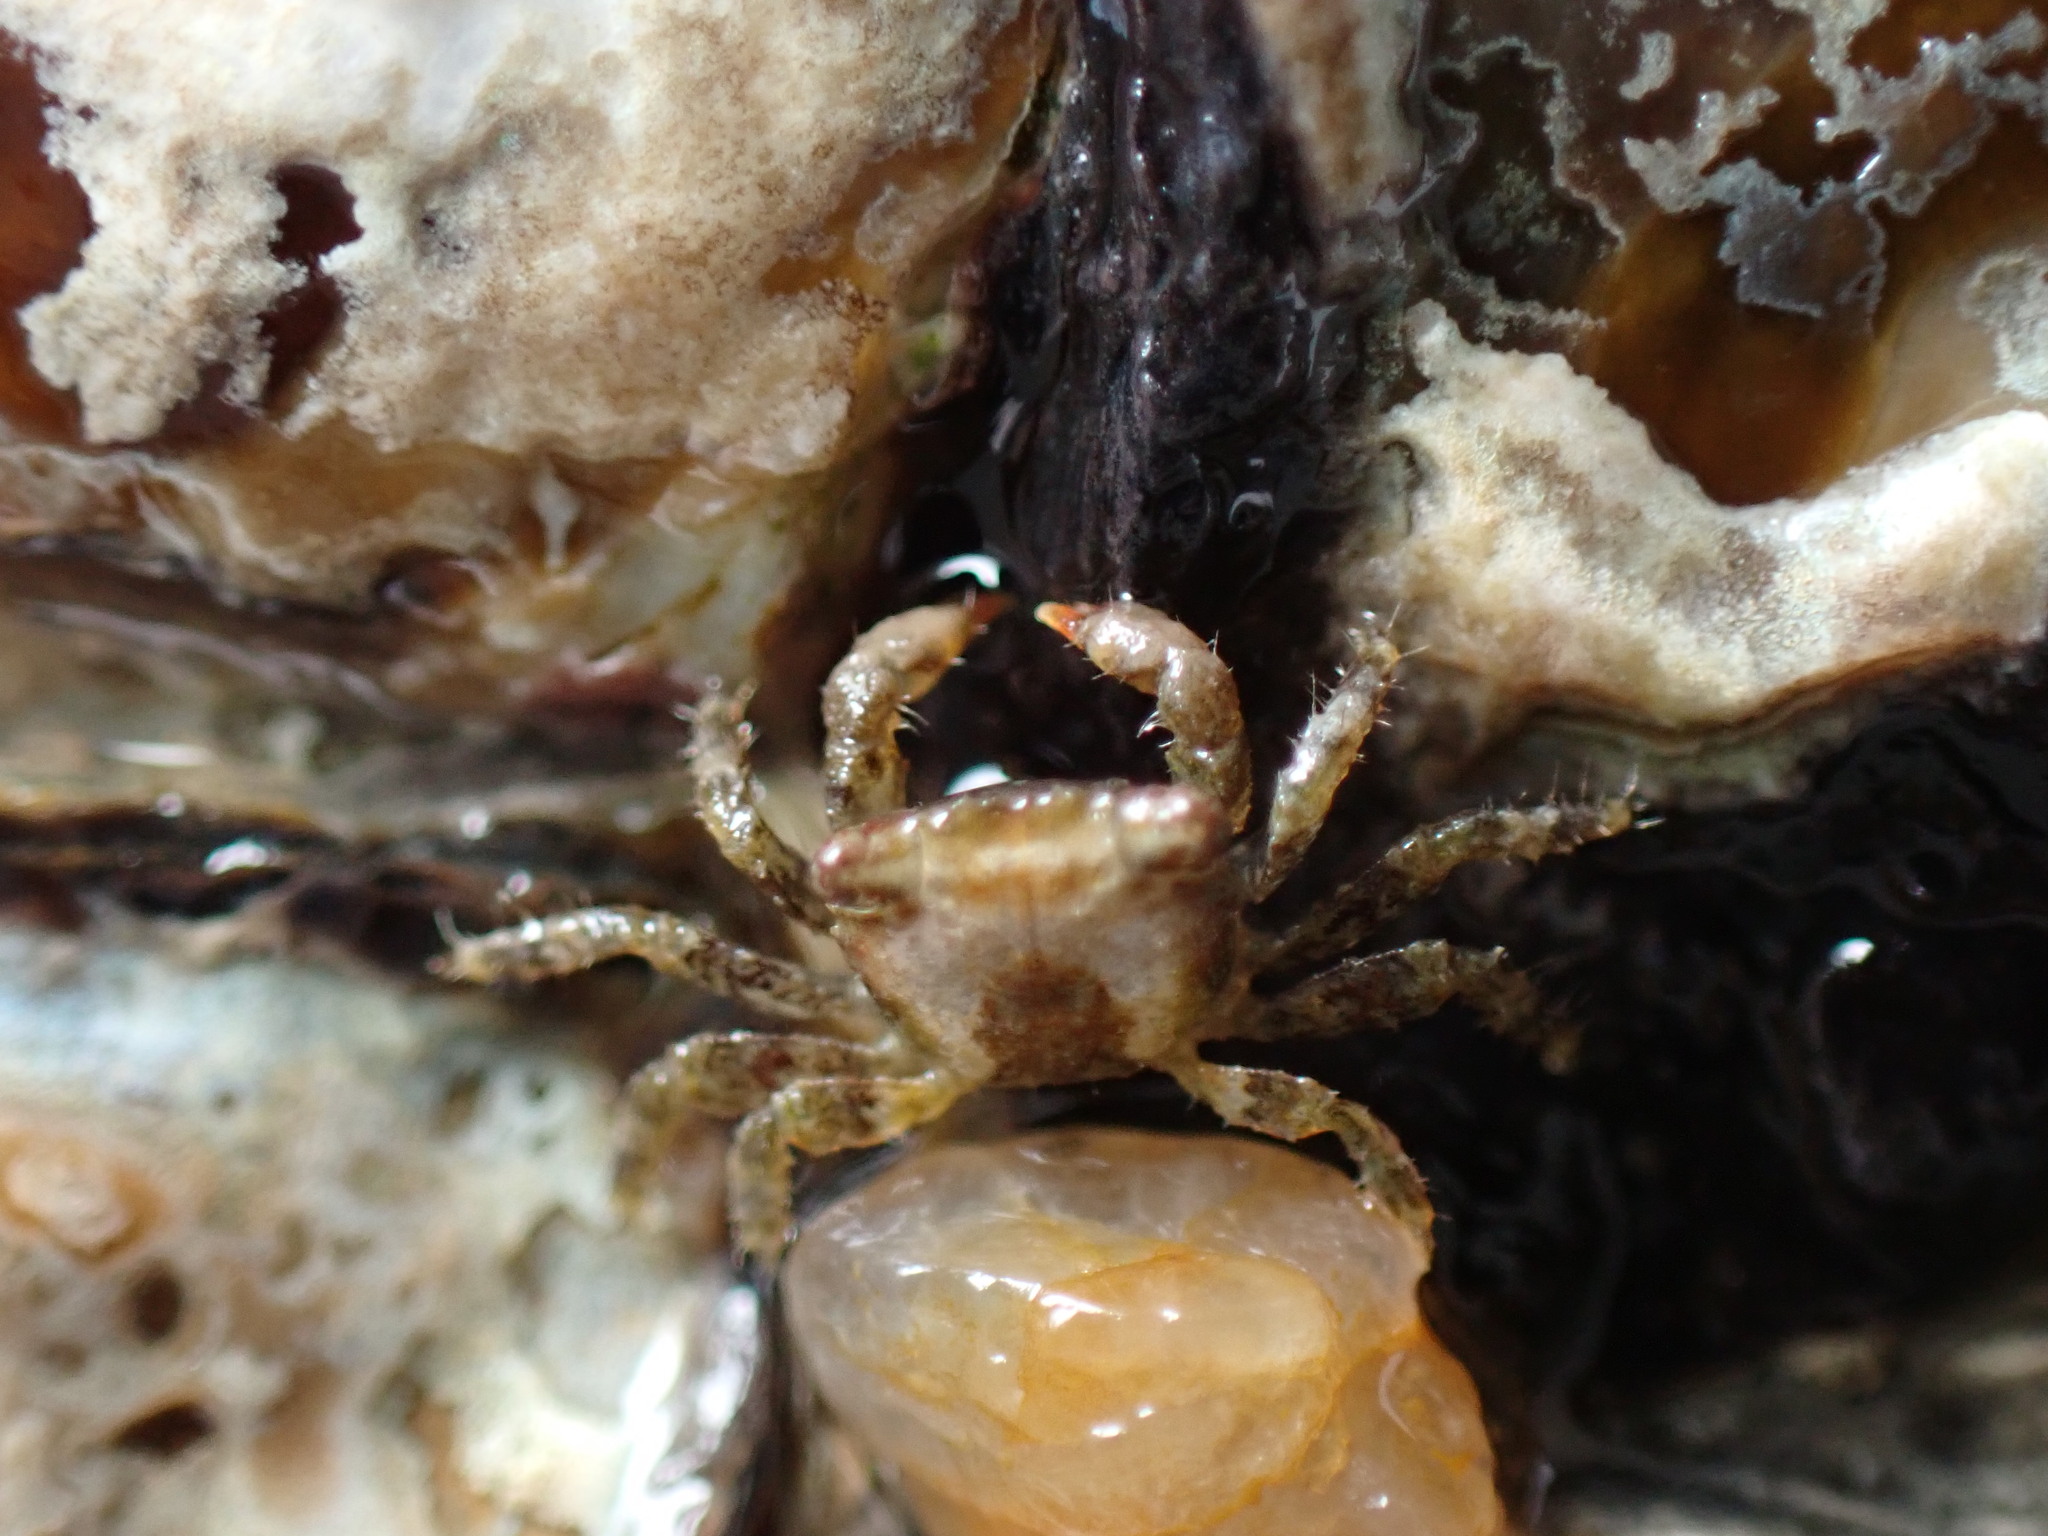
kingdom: Animalia
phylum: Arthropoda
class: Malacostraca
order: Decapoda
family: Sesarmidae
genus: Nanosesarma
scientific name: Nanosesarma minutum
